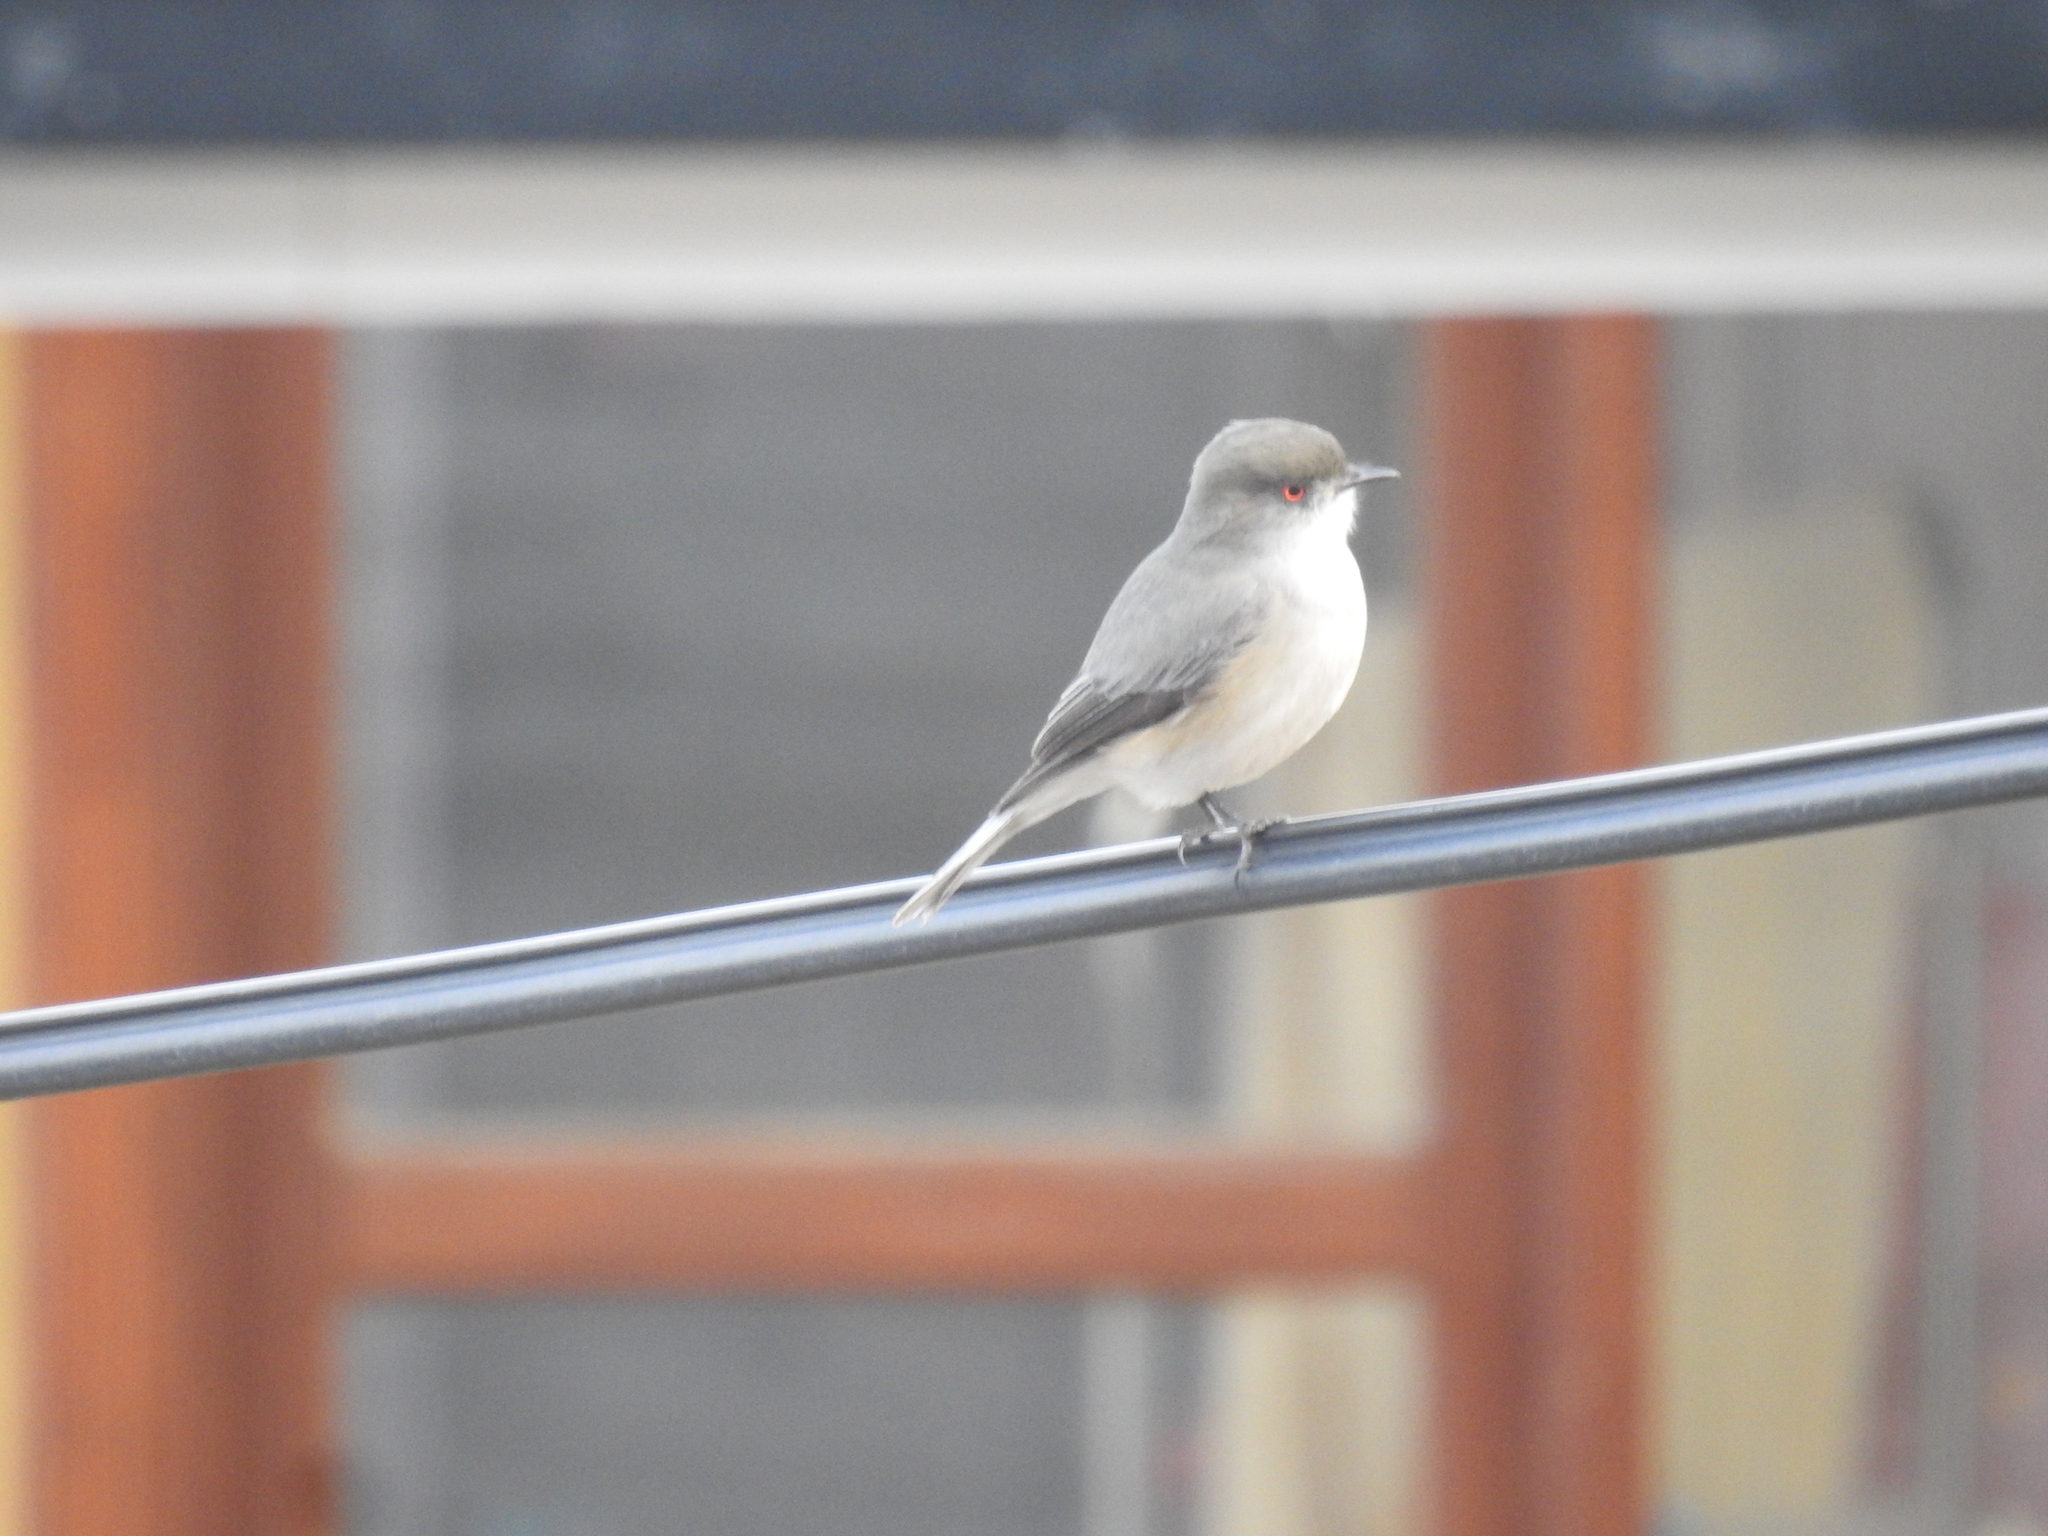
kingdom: Animalia
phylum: Chordata
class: Aves
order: Passeriformes
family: Tyrannidae
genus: Xolmis
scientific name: Xolmis pyrope
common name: Fire-eyed diucon
